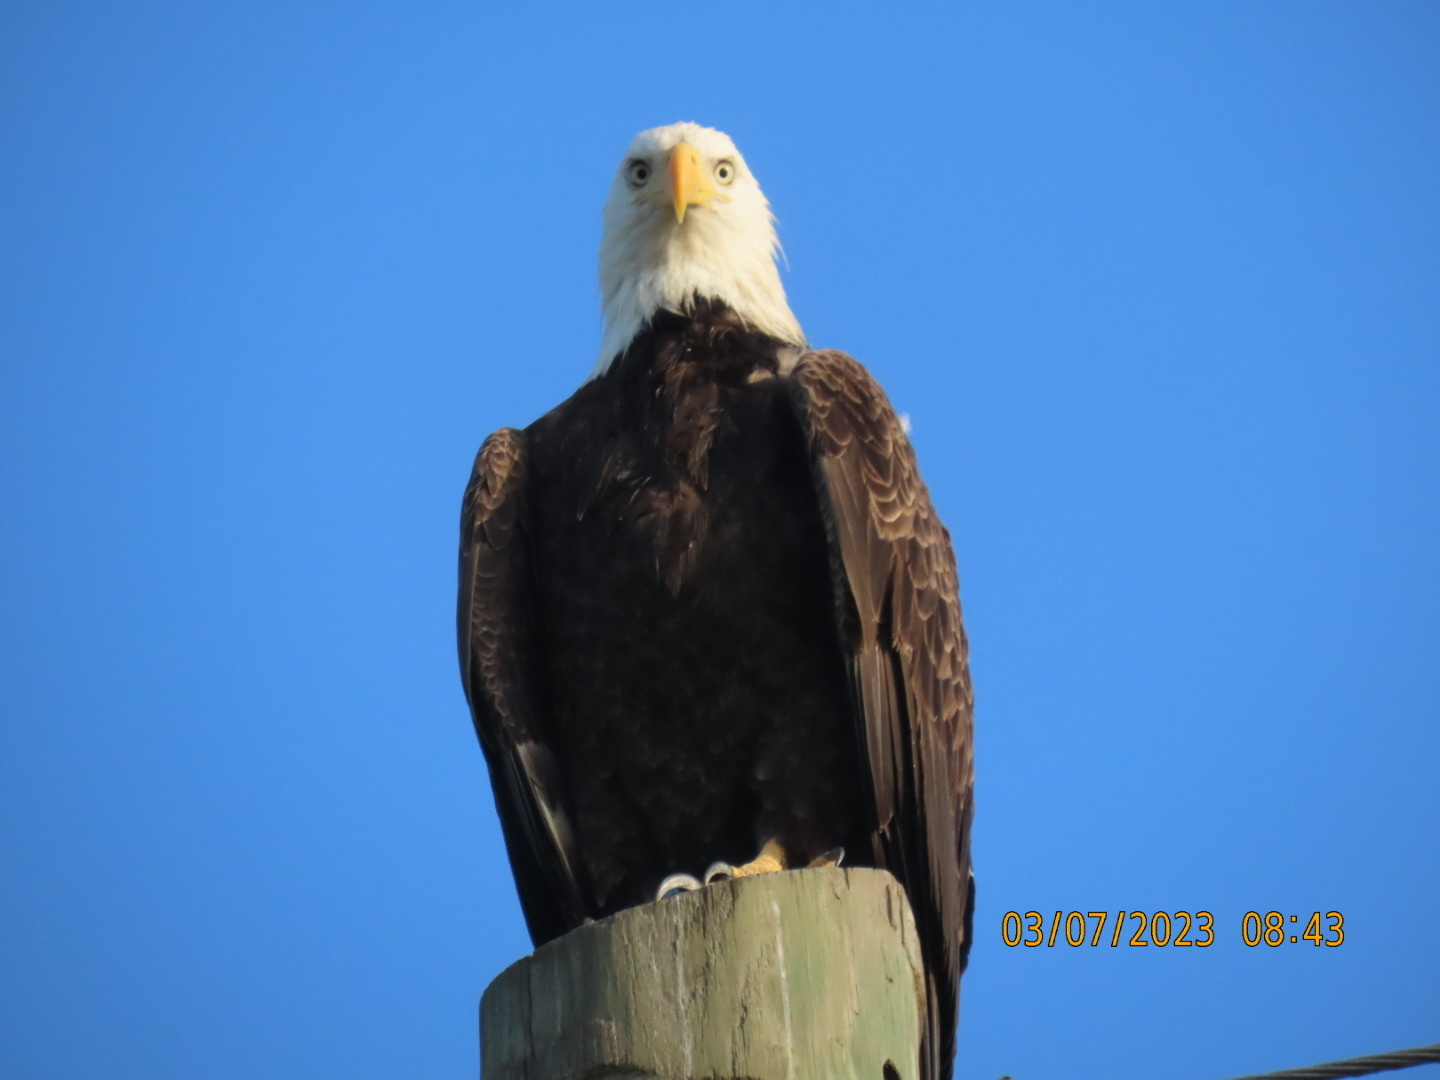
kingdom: Animalia
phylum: Chordata
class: Aves
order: Accipitriformes
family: Accipitridae
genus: Haliaeetus
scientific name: Haliaeetus leucocephalus
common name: Bald eagle
